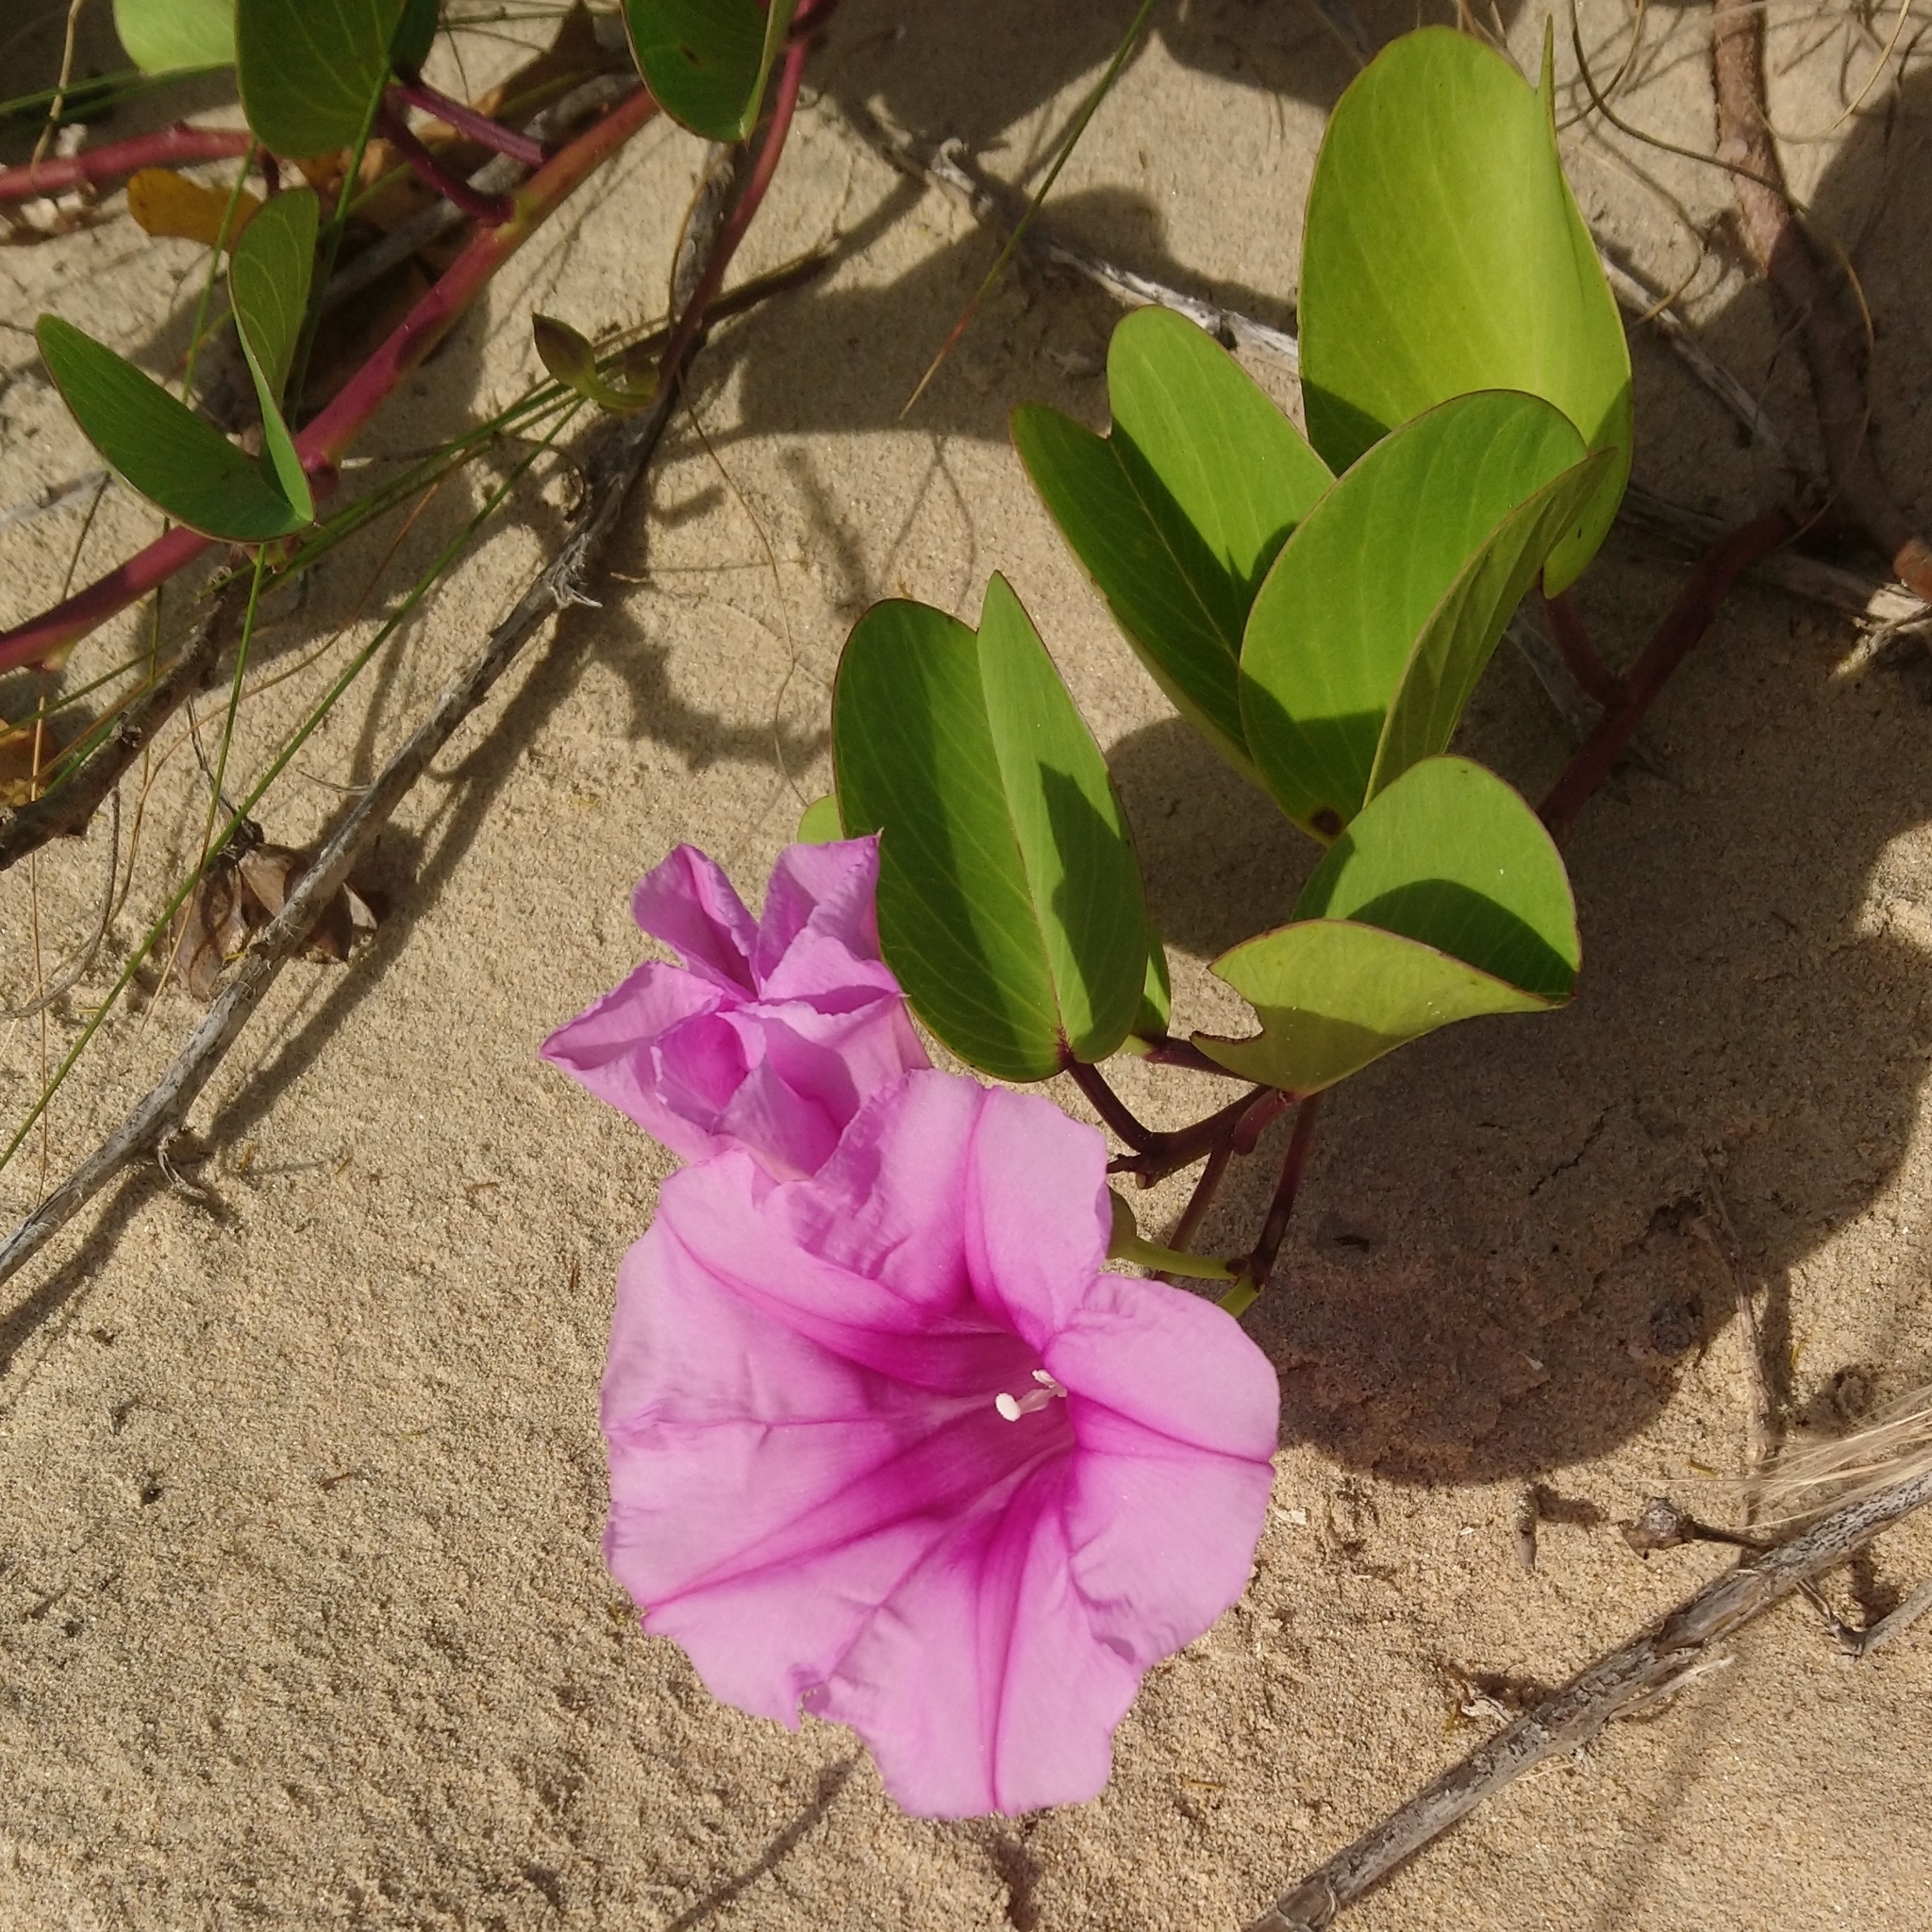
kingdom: Plantae
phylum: Tracheophyta
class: Magnoliopsida
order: Solanales
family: Convolvulaceae
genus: Ipomoea
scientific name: Ipomoea pes-caprae
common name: Beach morning glory
